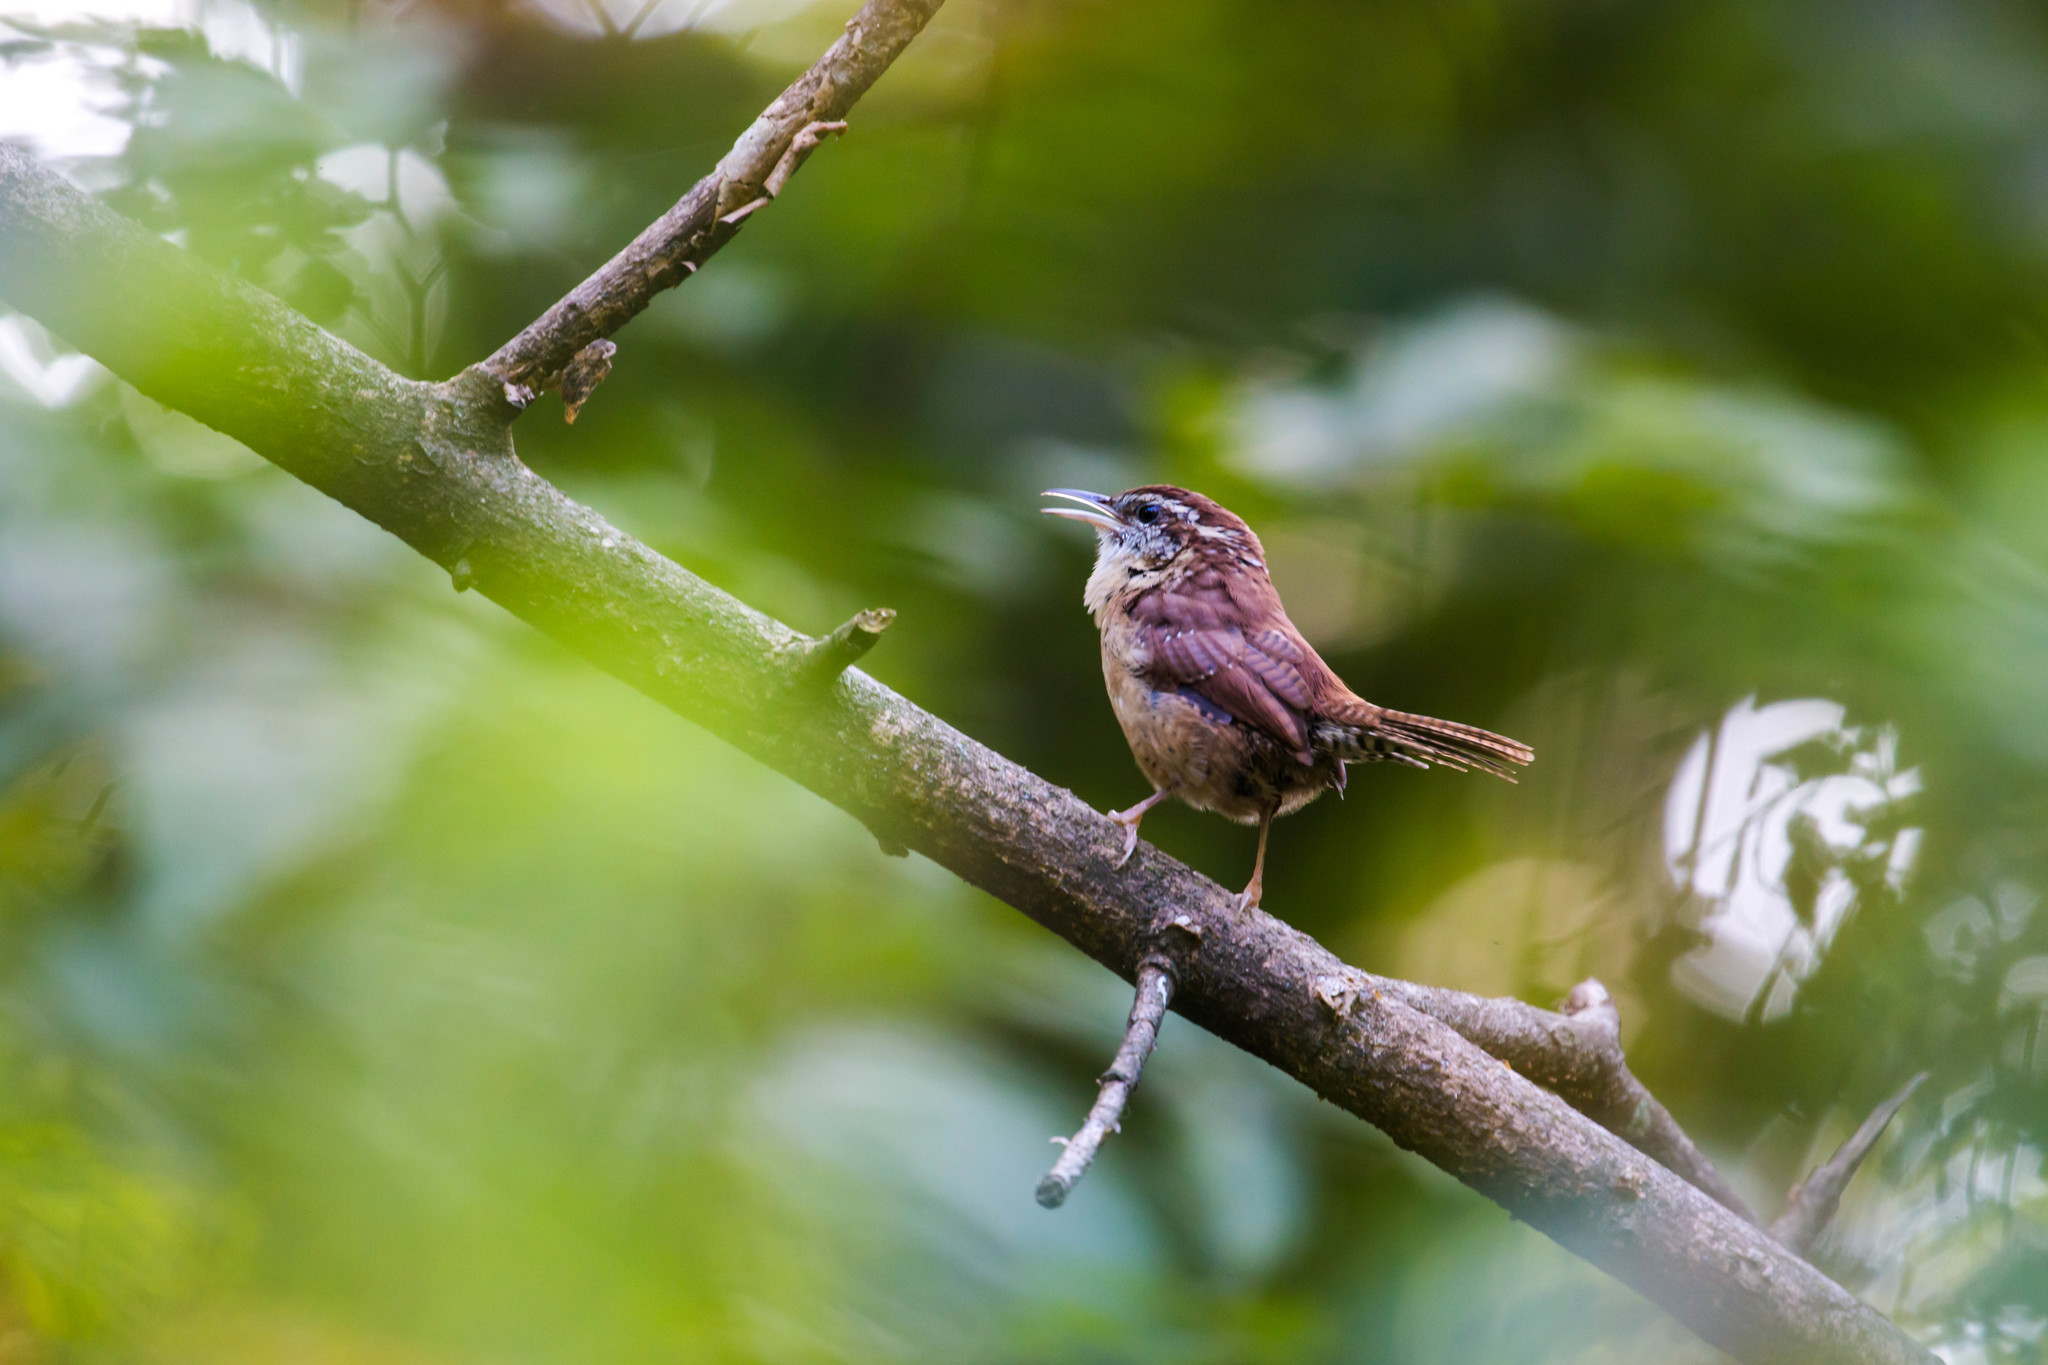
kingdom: Animalia
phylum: Chordata
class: Aves
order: Passeriformes
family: Troglodytidae
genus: Thryothorus
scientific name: Thryothorus ludovicianus
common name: Carolina wren
